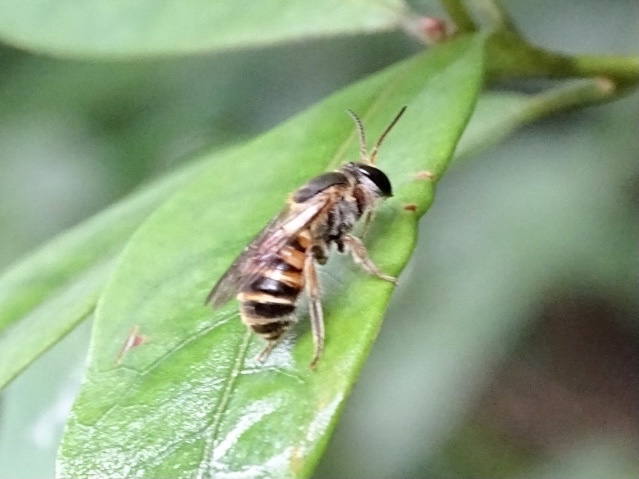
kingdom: Animalia
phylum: Arthropoda
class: Insecta
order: Hymenoptera
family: Halictidae
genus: Nomia
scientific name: Nomia penangensis
